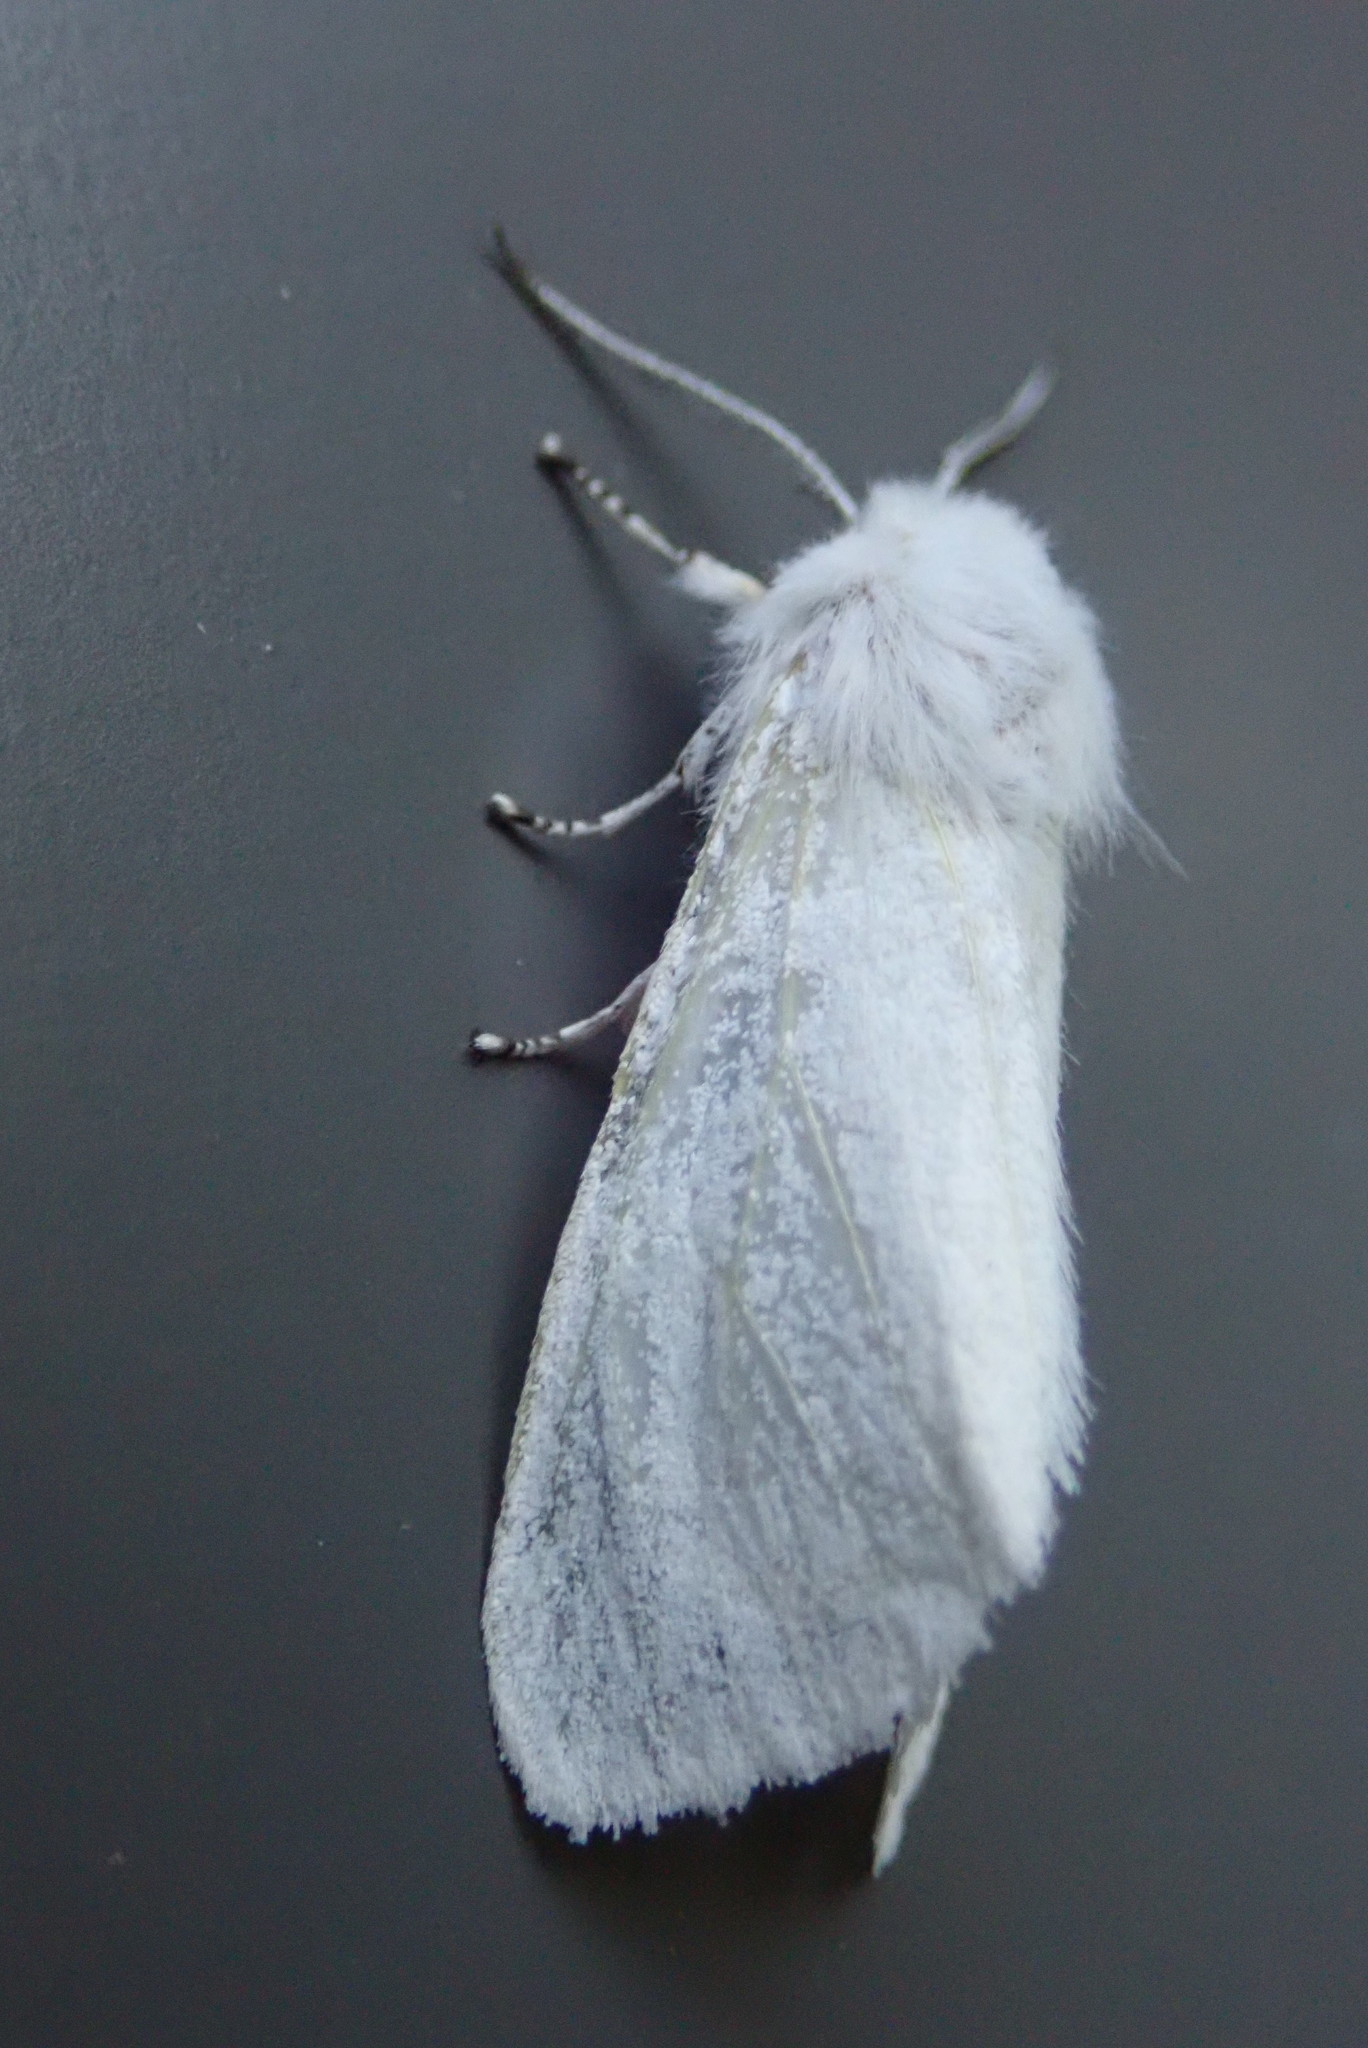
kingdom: Animalia
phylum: Arthropoda
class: Insecta
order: Lepidoptera
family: Erebidae
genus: Hyphantria
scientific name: Hyphantria cunea
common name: American white moth
